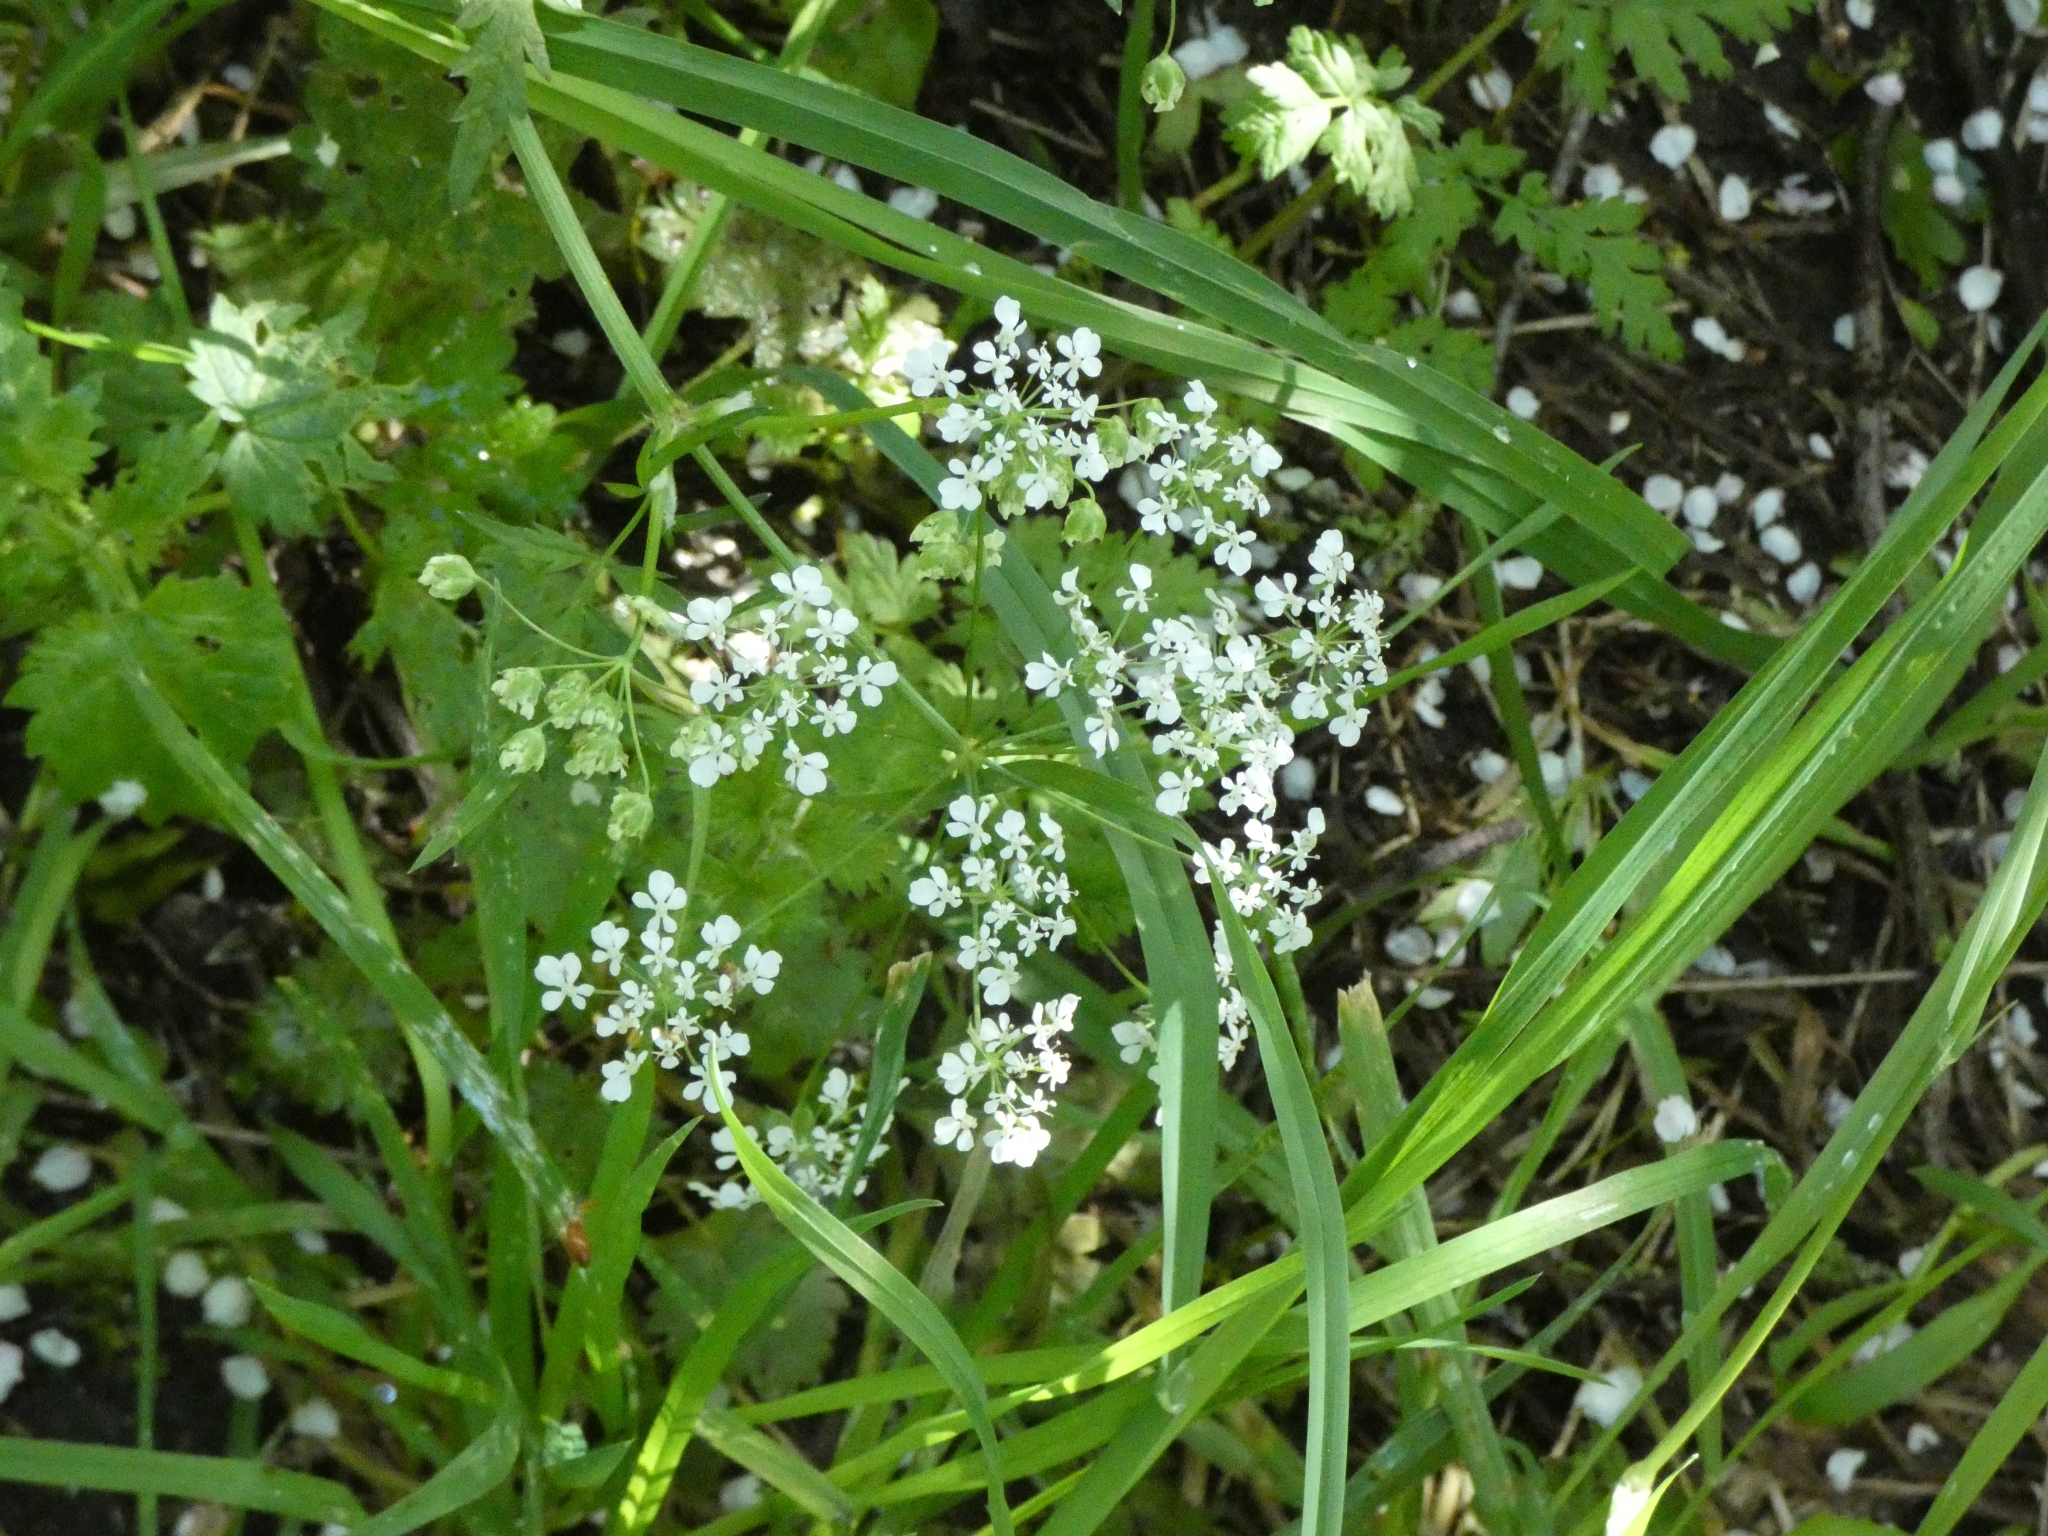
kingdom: Plantae
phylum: Tracheophyta
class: Magnoliopsida
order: Apiales
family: Apiaceae
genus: Anthriscus
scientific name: Anthriscus sylvestris
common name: Cow parsley
